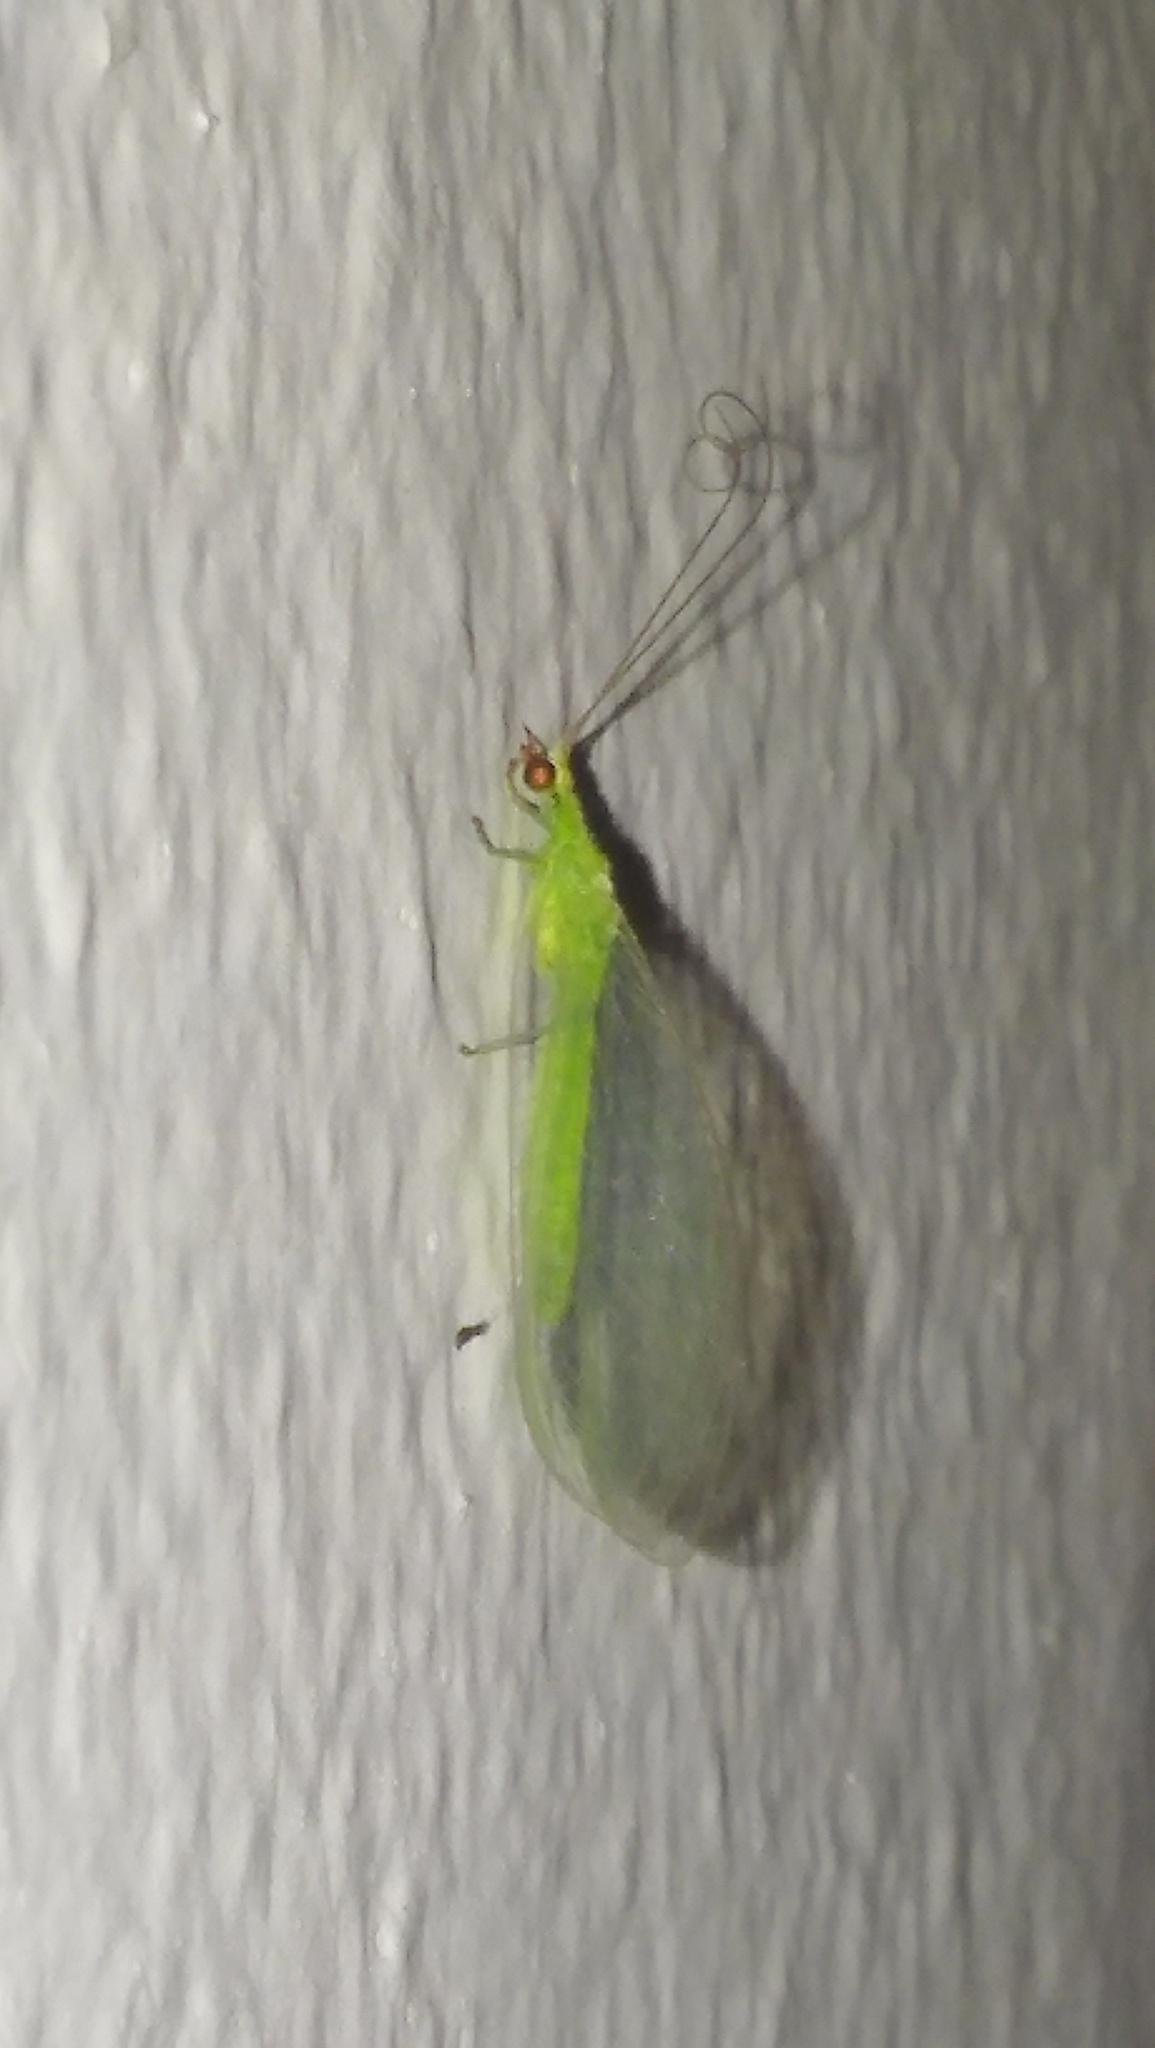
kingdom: Animalia
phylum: Arthropoda
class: Insecta
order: Neuroptera
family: Chrysopidae
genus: Chrysoperla
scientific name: Chrysoperla externa
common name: Green lacewing
